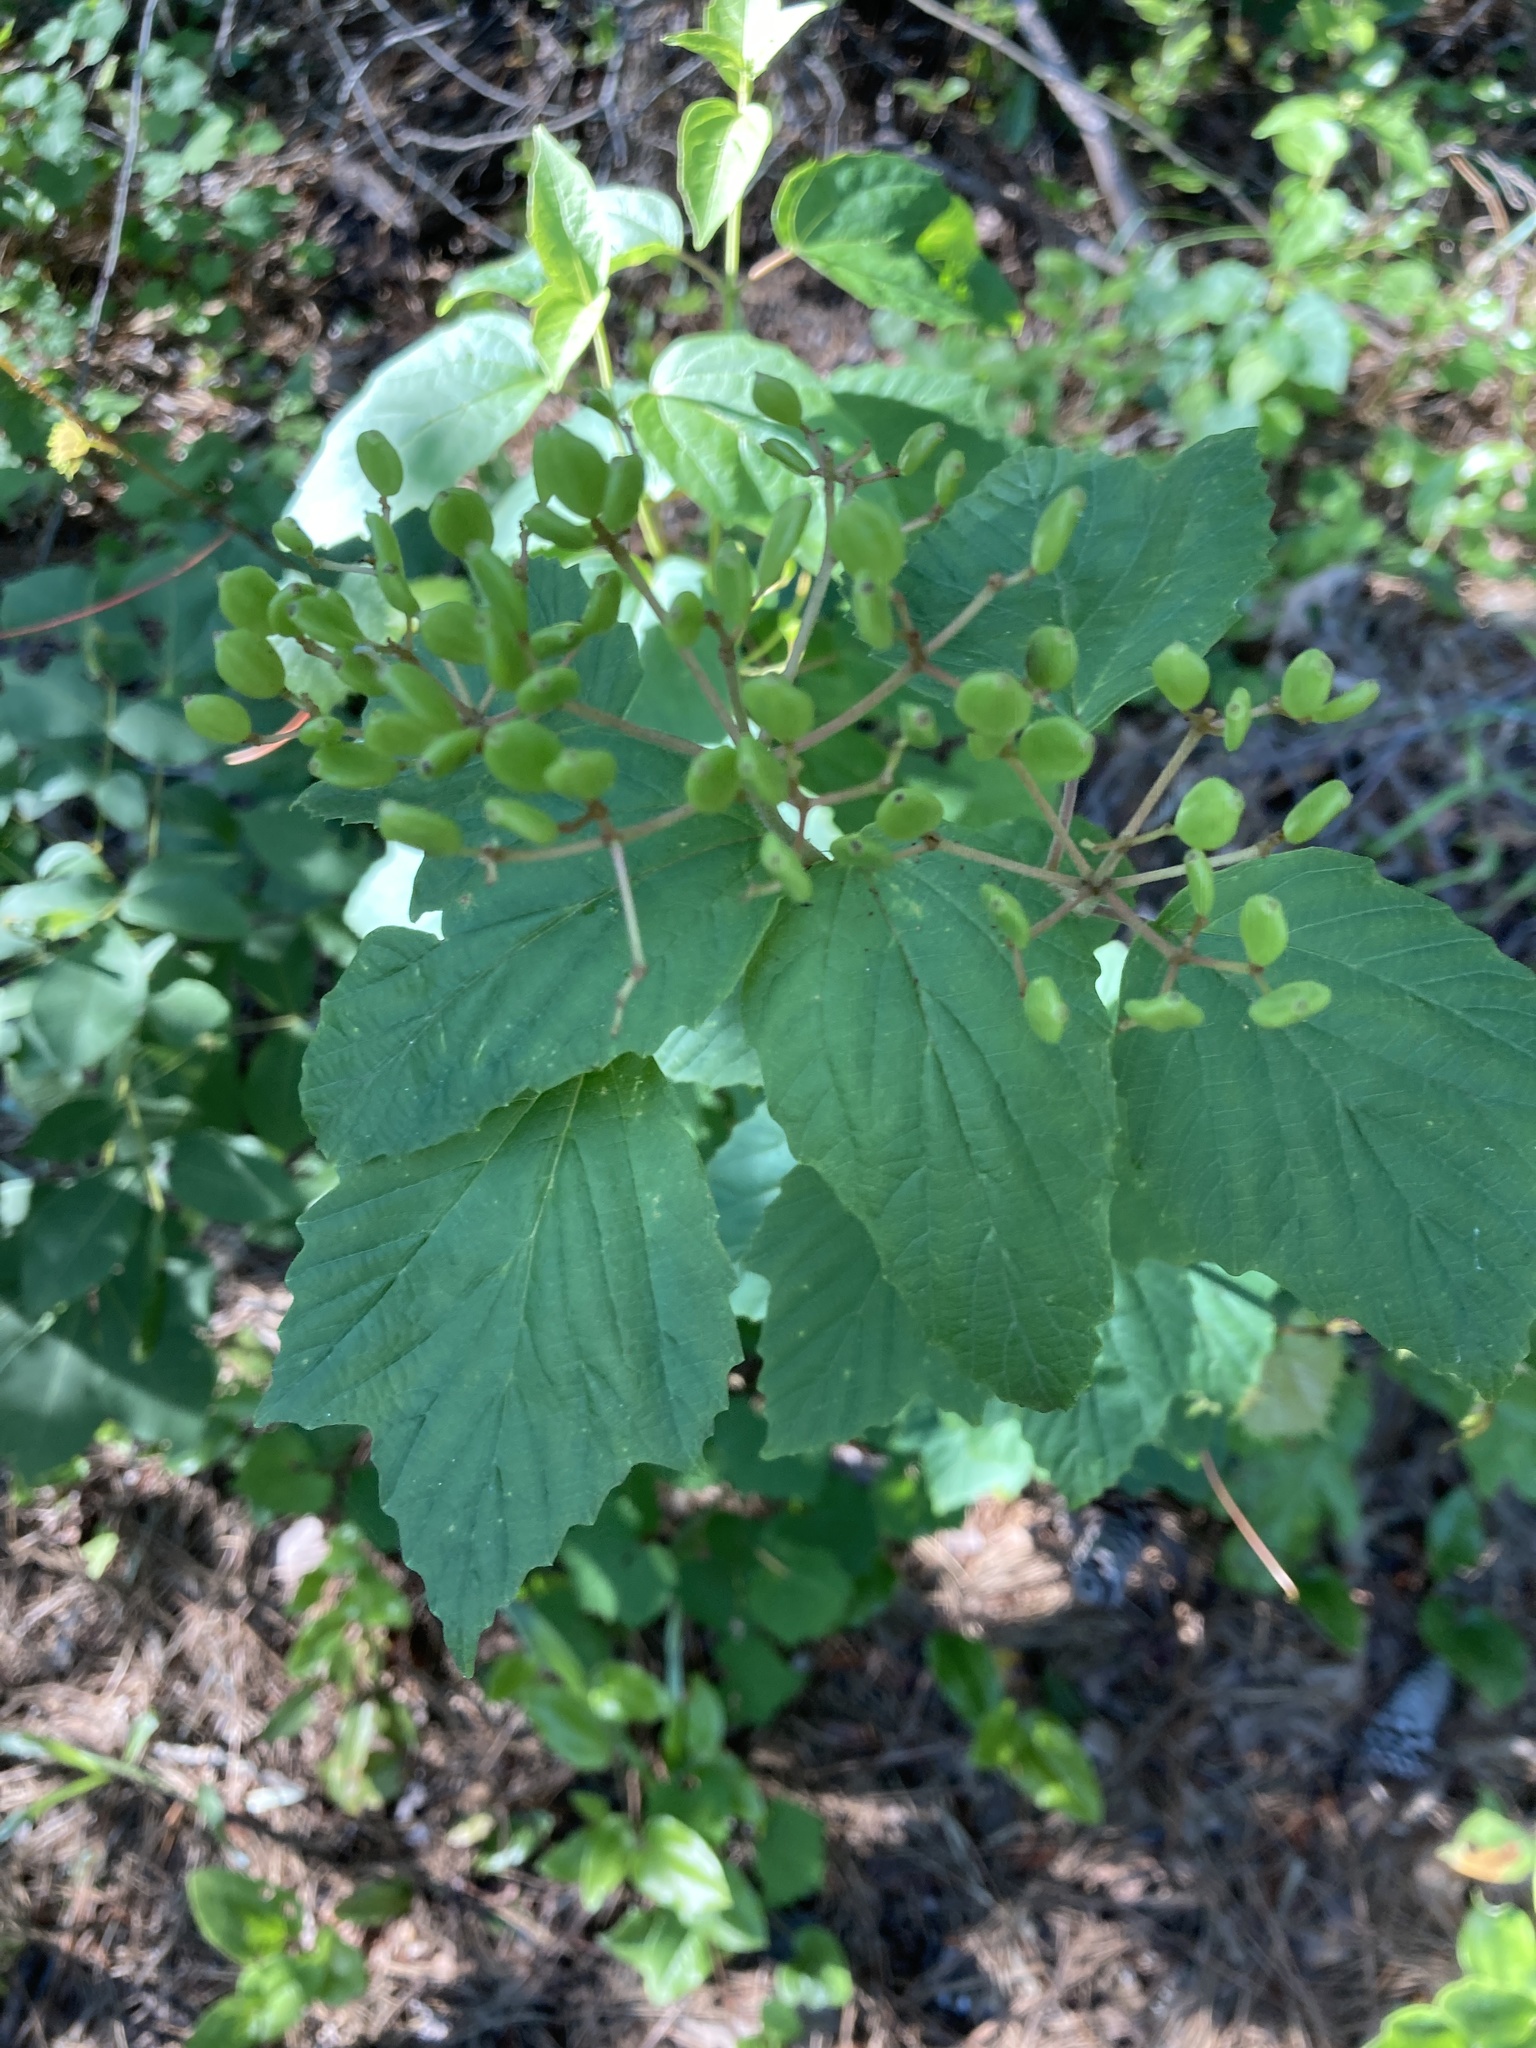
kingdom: Plantae
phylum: Tracheophyta
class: Magnoliopsida
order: Dipsacales
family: Viburnaceae
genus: Viburnum
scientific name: Viburnum acerifolium
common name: Dockmackie
